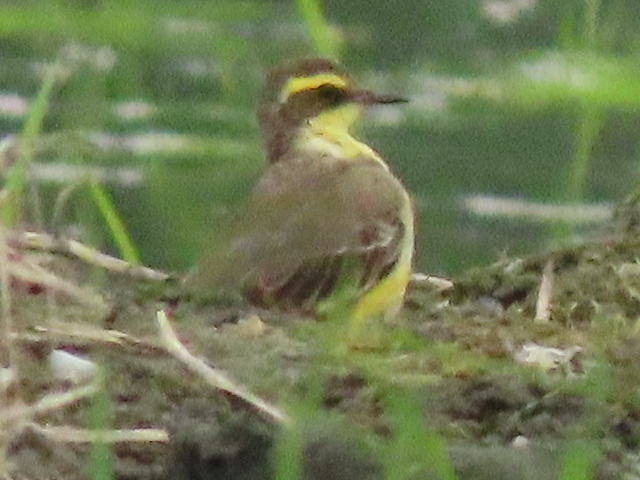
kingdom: Animalia
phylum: Chordata
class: Aves
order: Passeriformes
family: Motacillidae
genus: Motacilla
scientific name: Motacilla tschutschensis
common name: Eastern yellow wagtail
